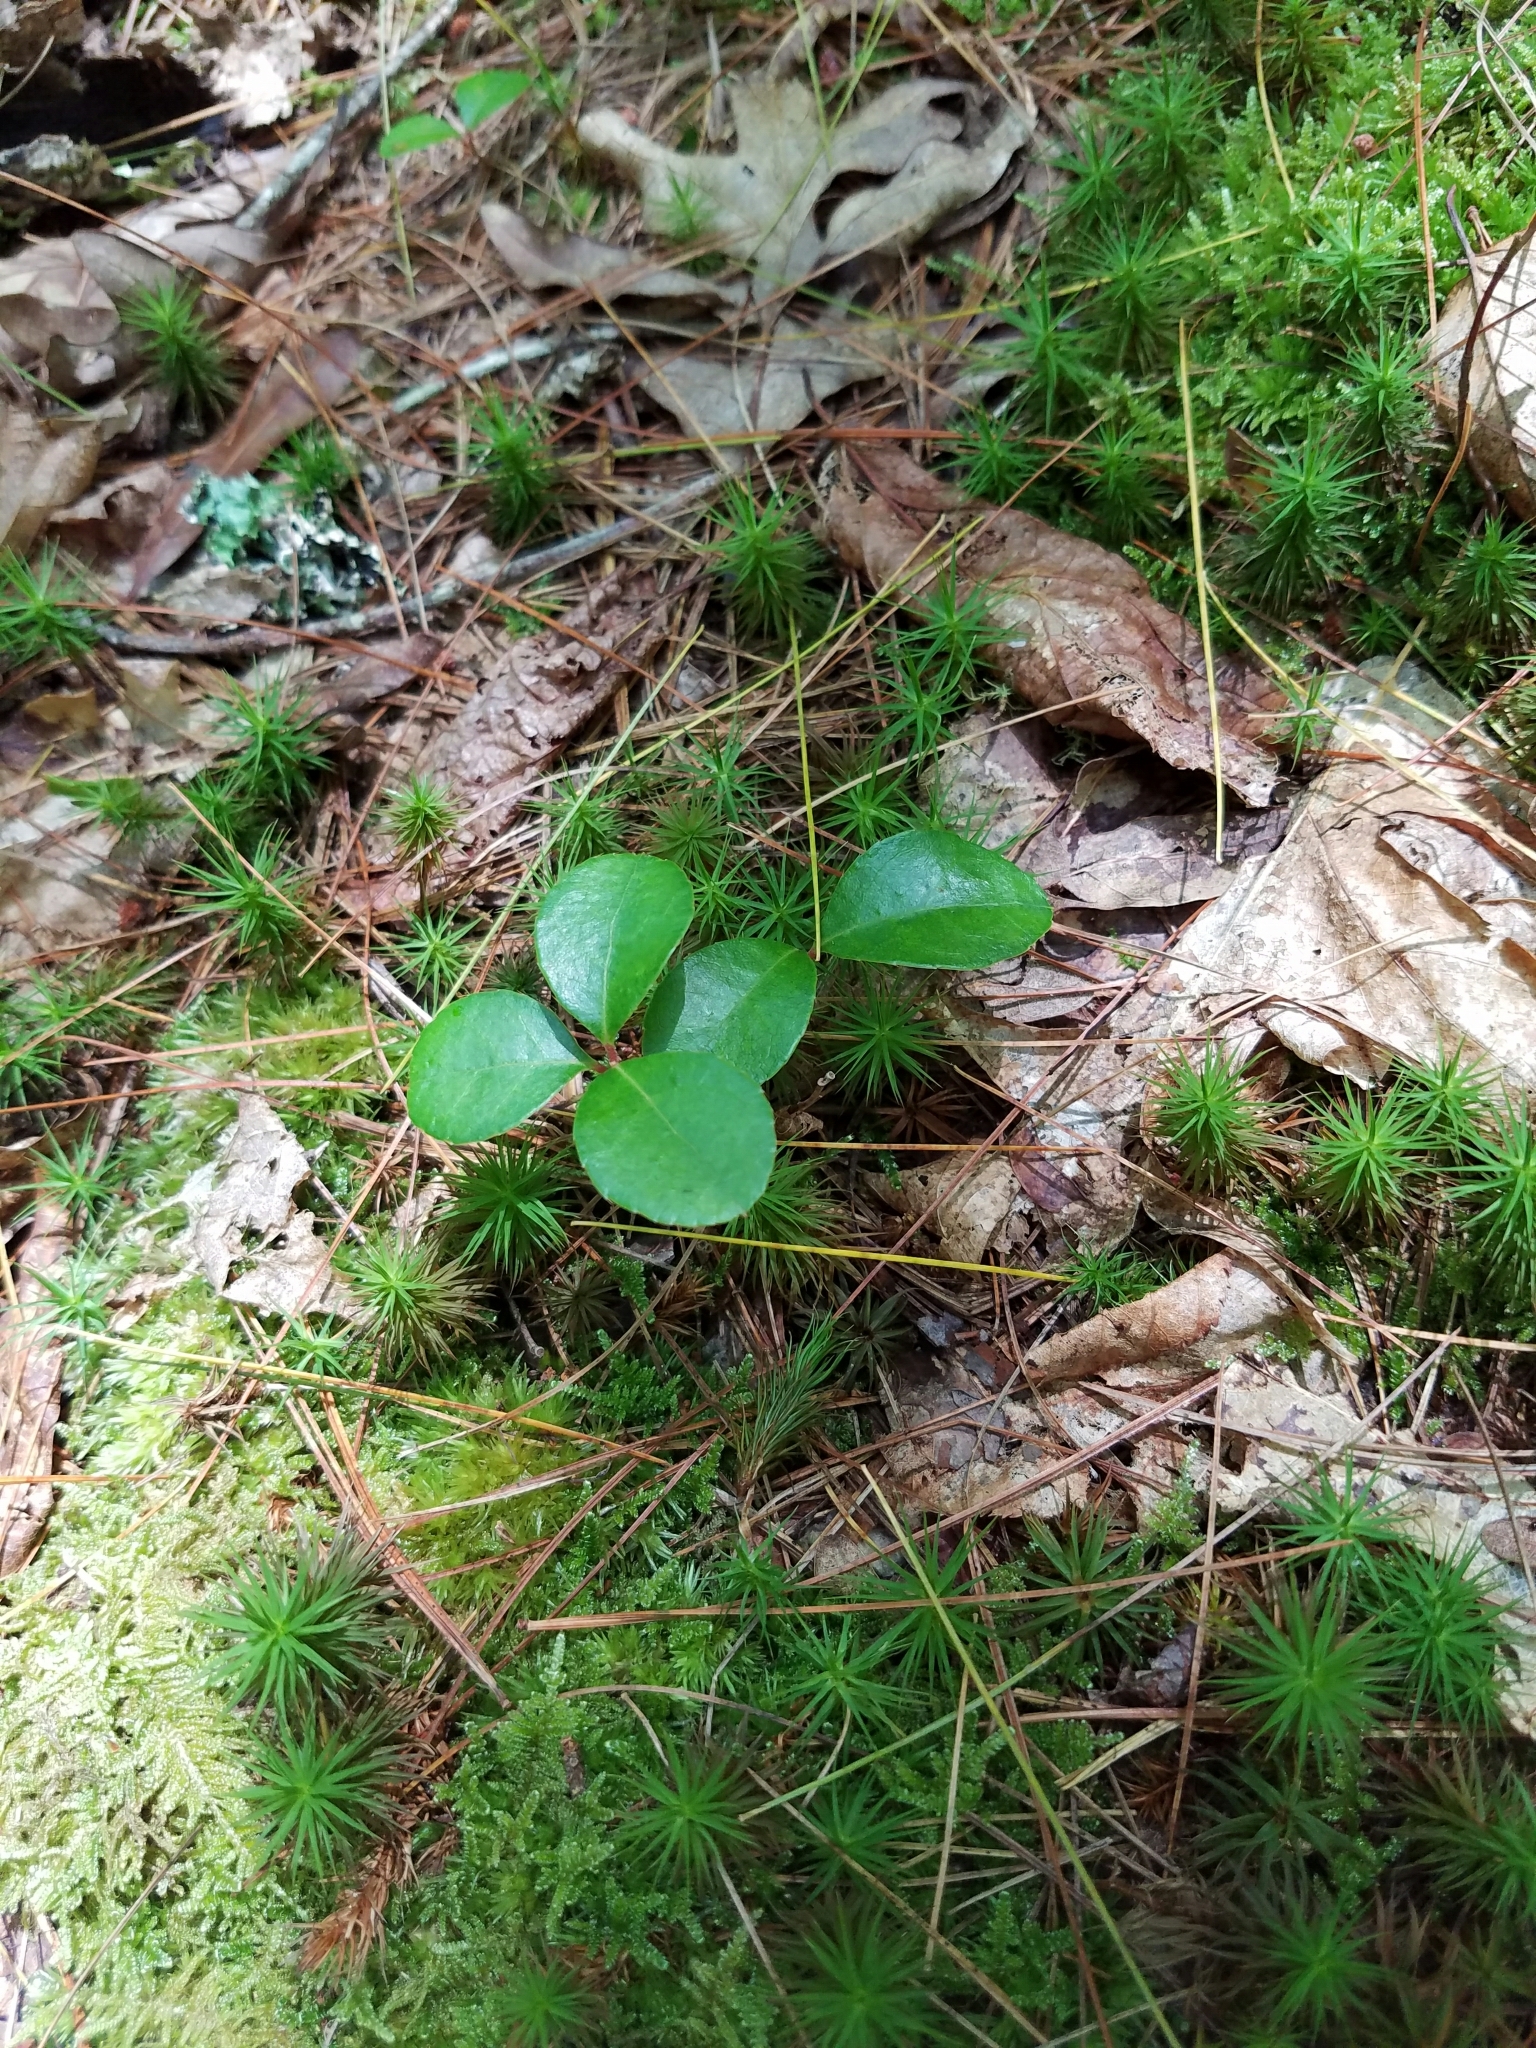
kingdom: Plantae
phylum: Tracheophyta
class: Magnoliopsida
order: Ericales
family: Ericaceae
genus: Gaultheria
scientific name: Gaultheria procumbens
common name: Checkerberry
